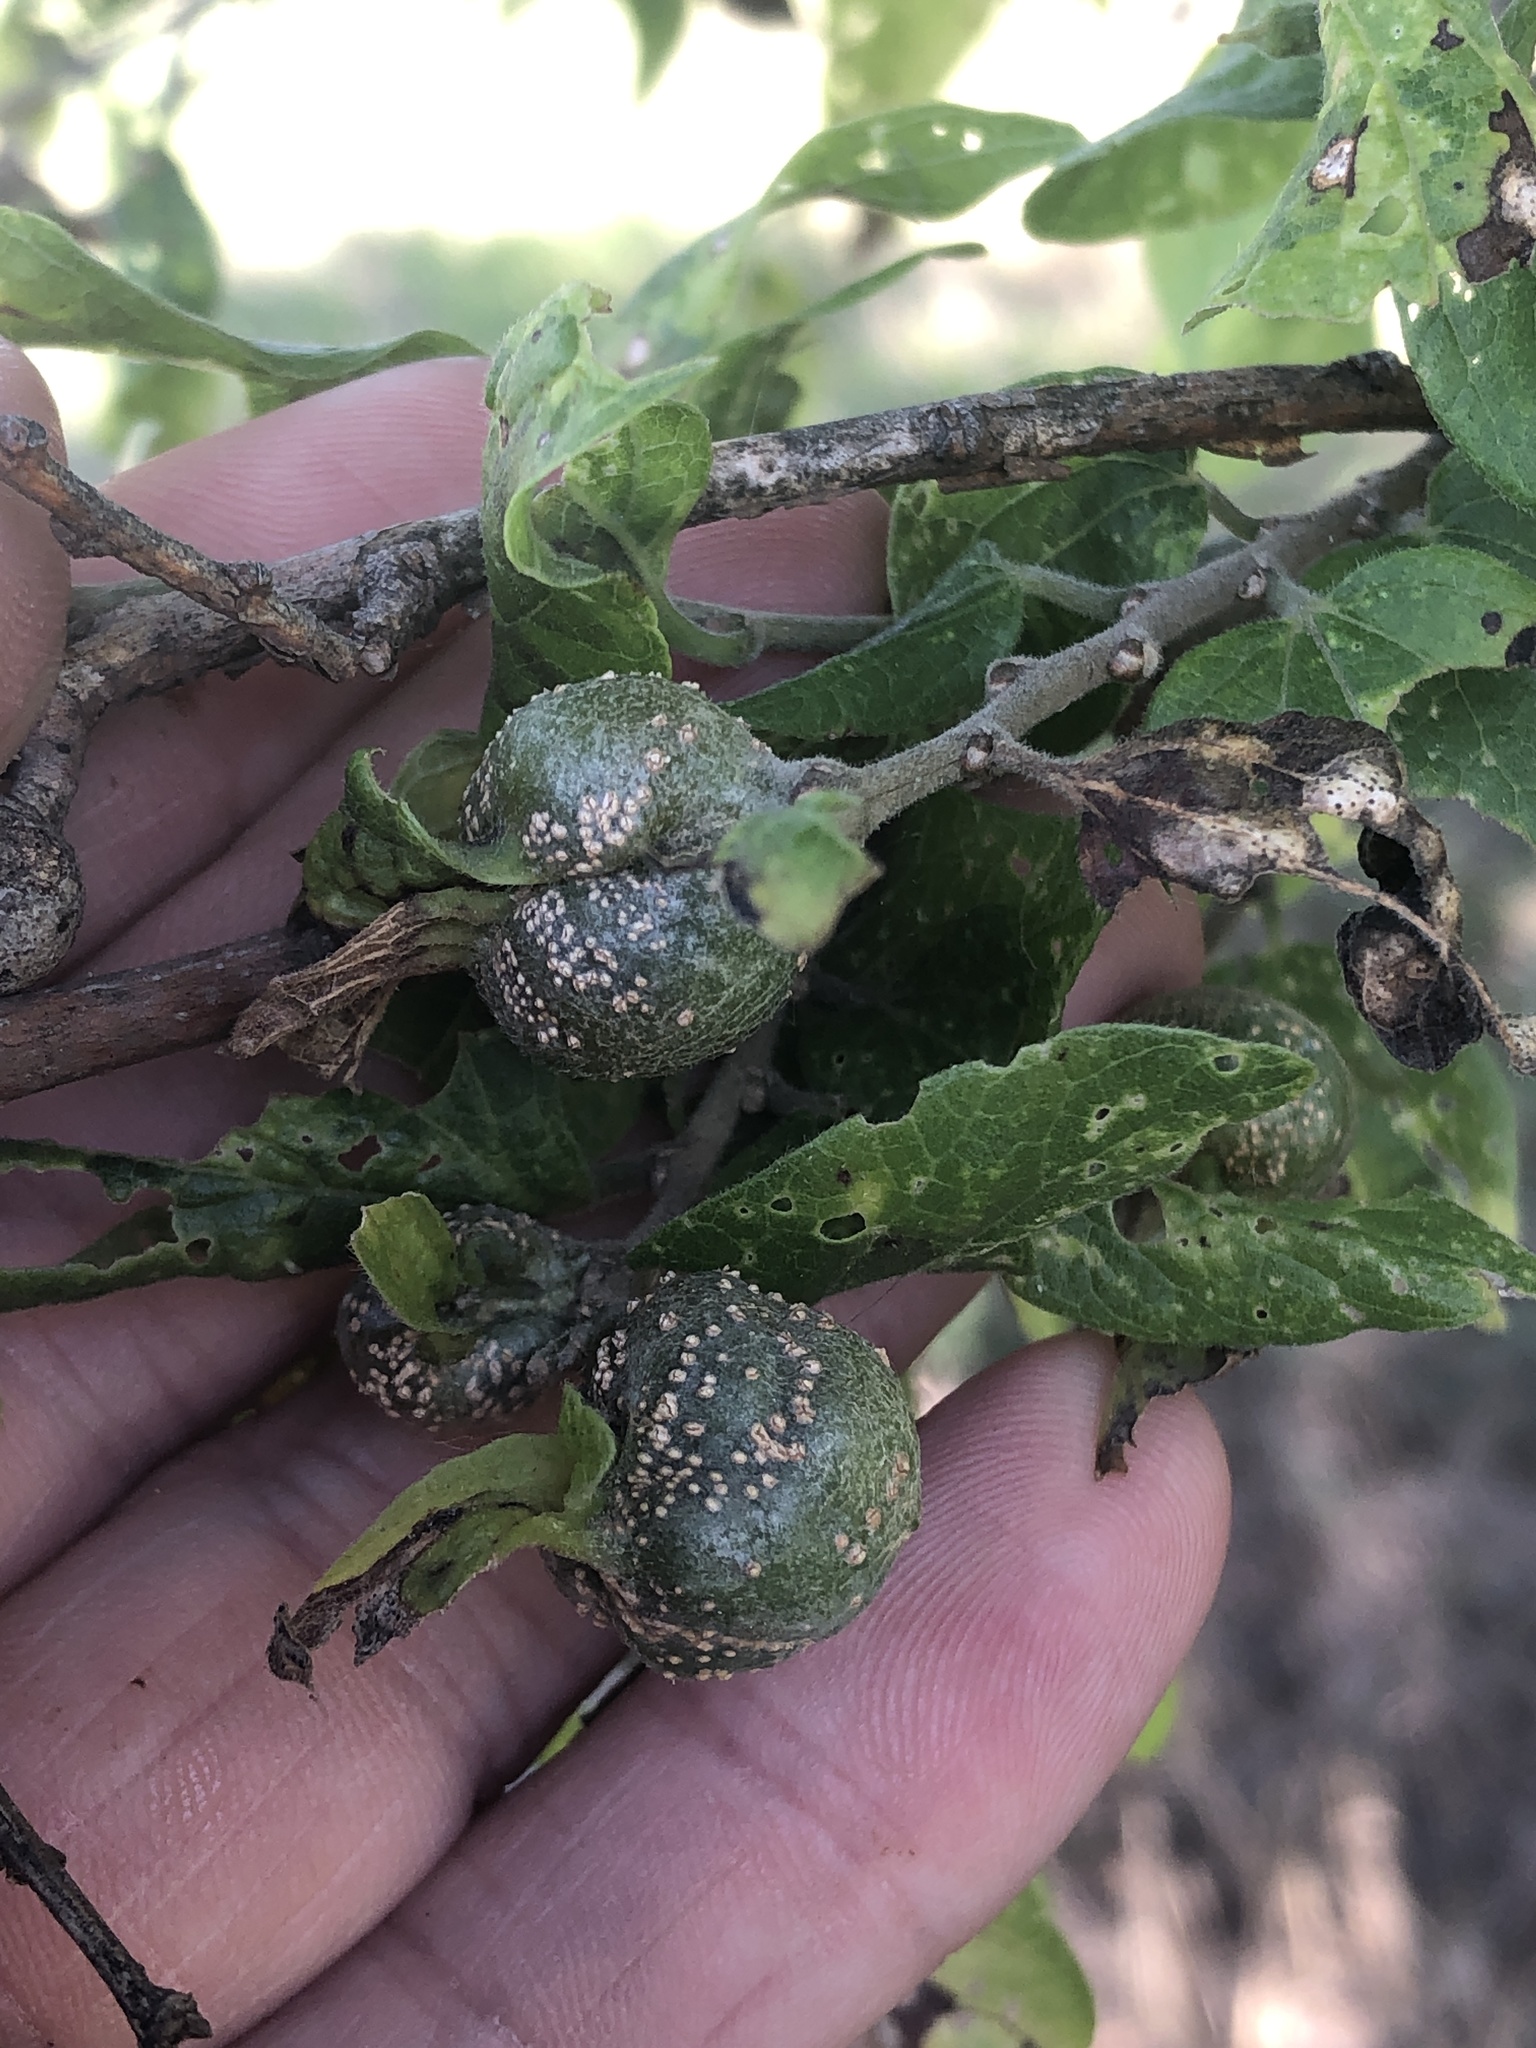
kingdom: Animalia
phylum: Arthropoda
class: Insecta
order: Hemiptera
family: Aphalaridae
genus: Pachypsylla
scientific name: Pachypsylla venusta
